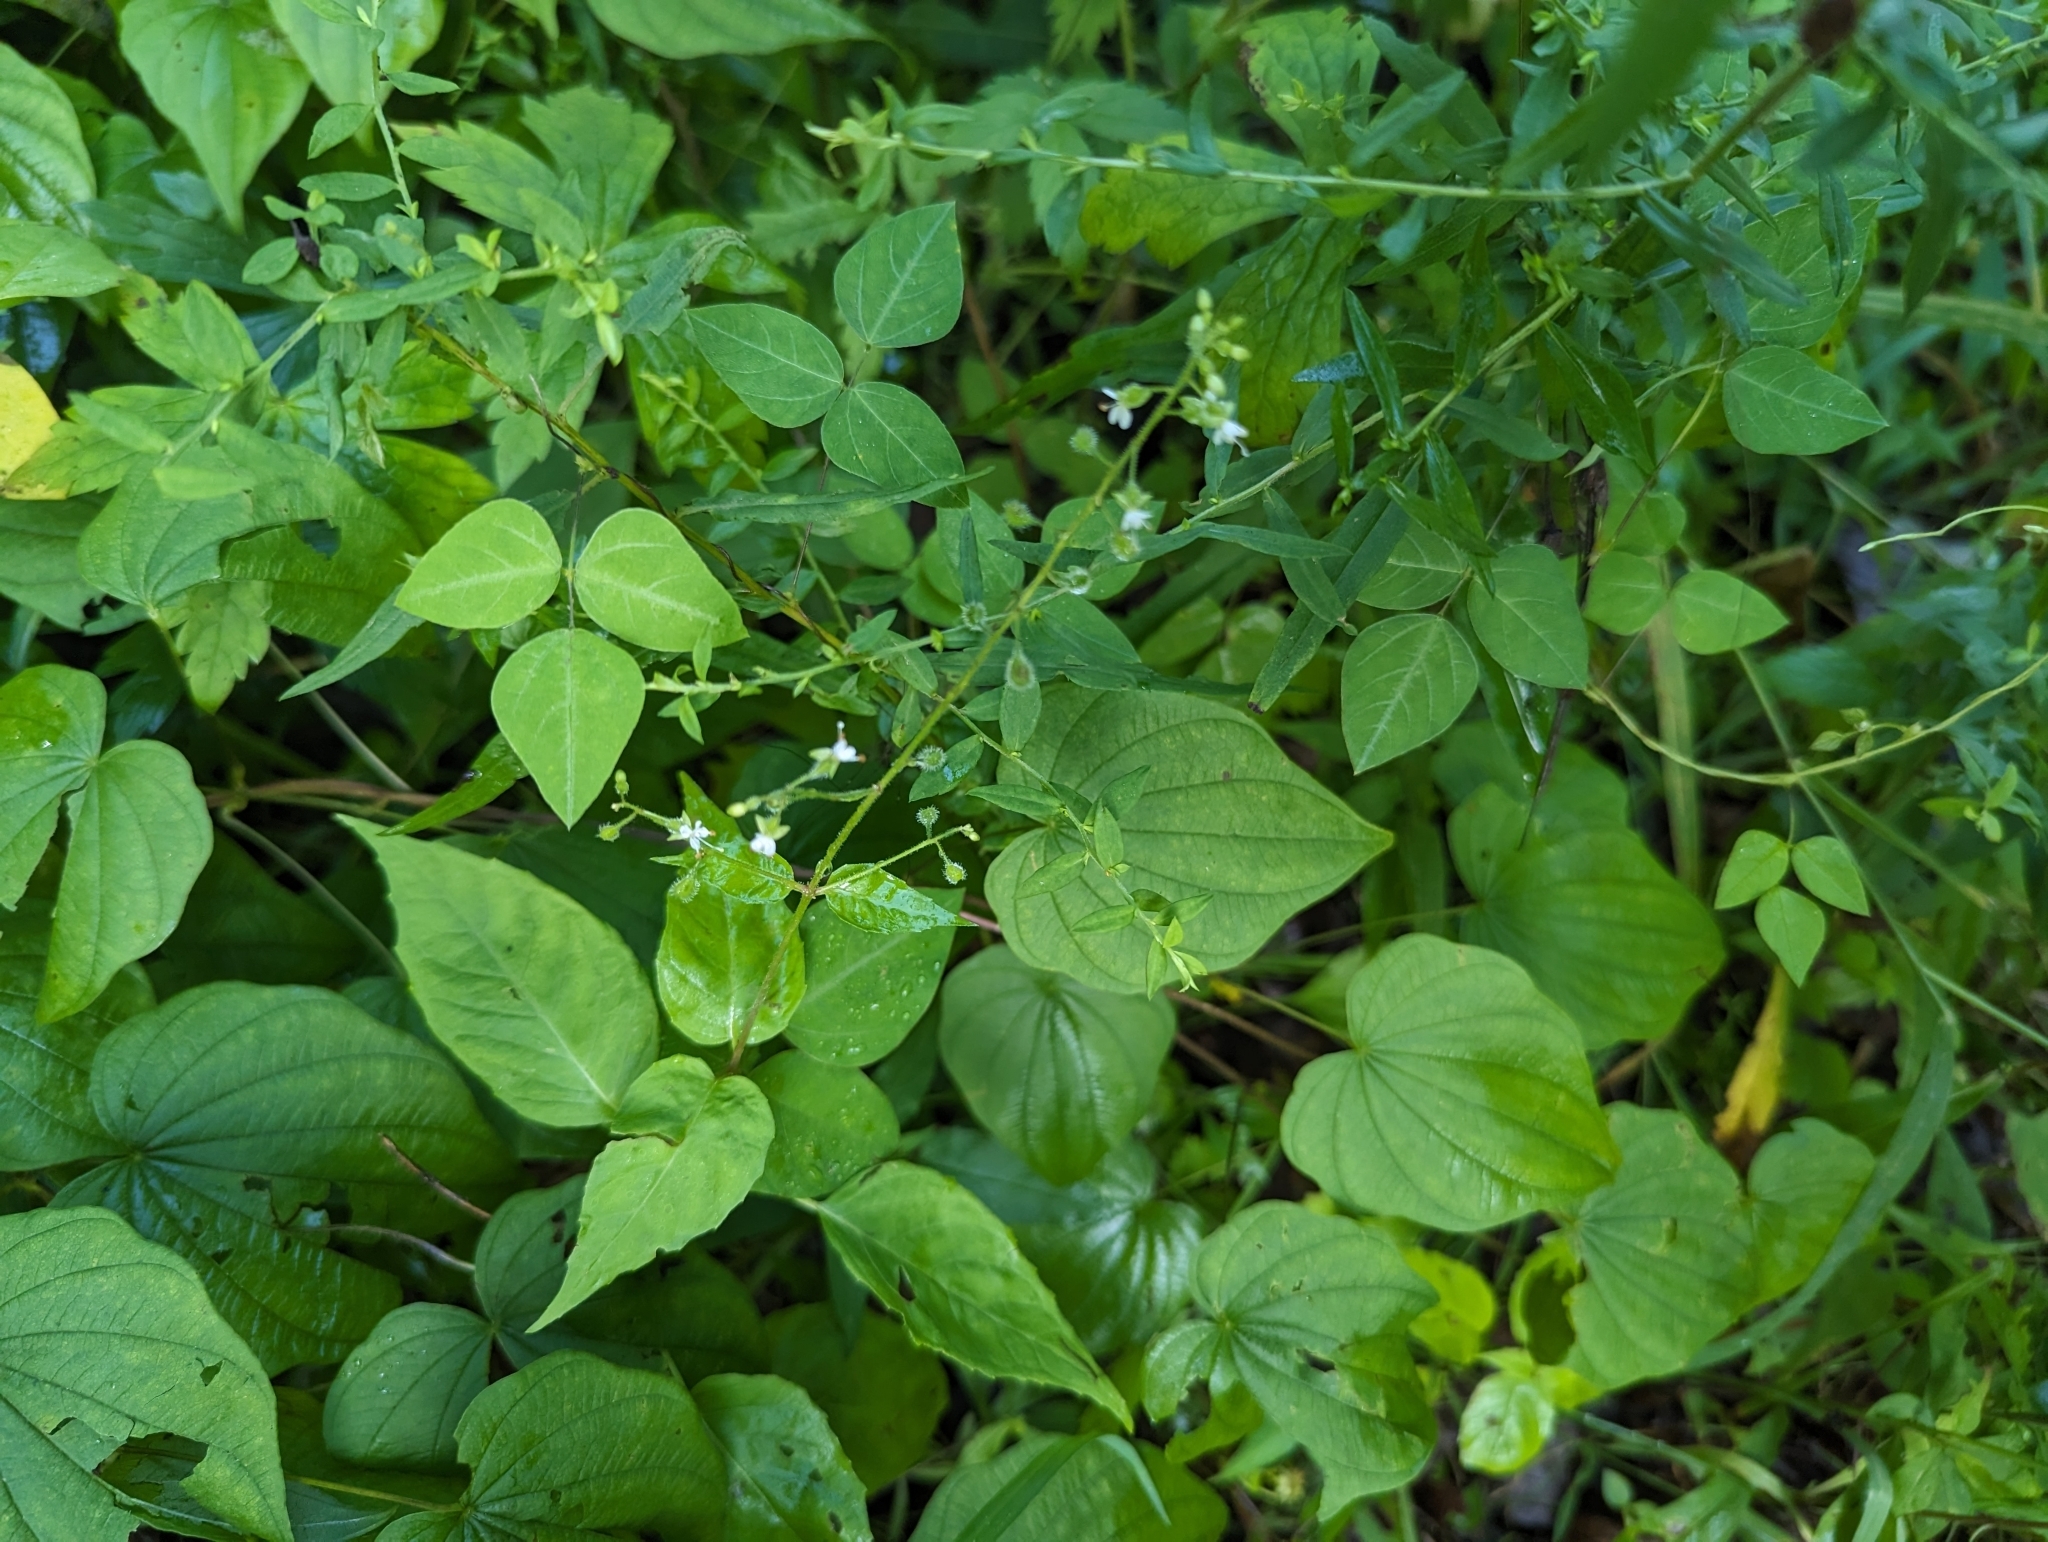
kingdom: Plantae
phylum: Tracheophyta
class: Magnoliopsida
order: Myrtales
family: Onagraceae
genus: Circaea
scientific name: Circaea canadensis
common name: Broad-leaved enchanter's nightshade
